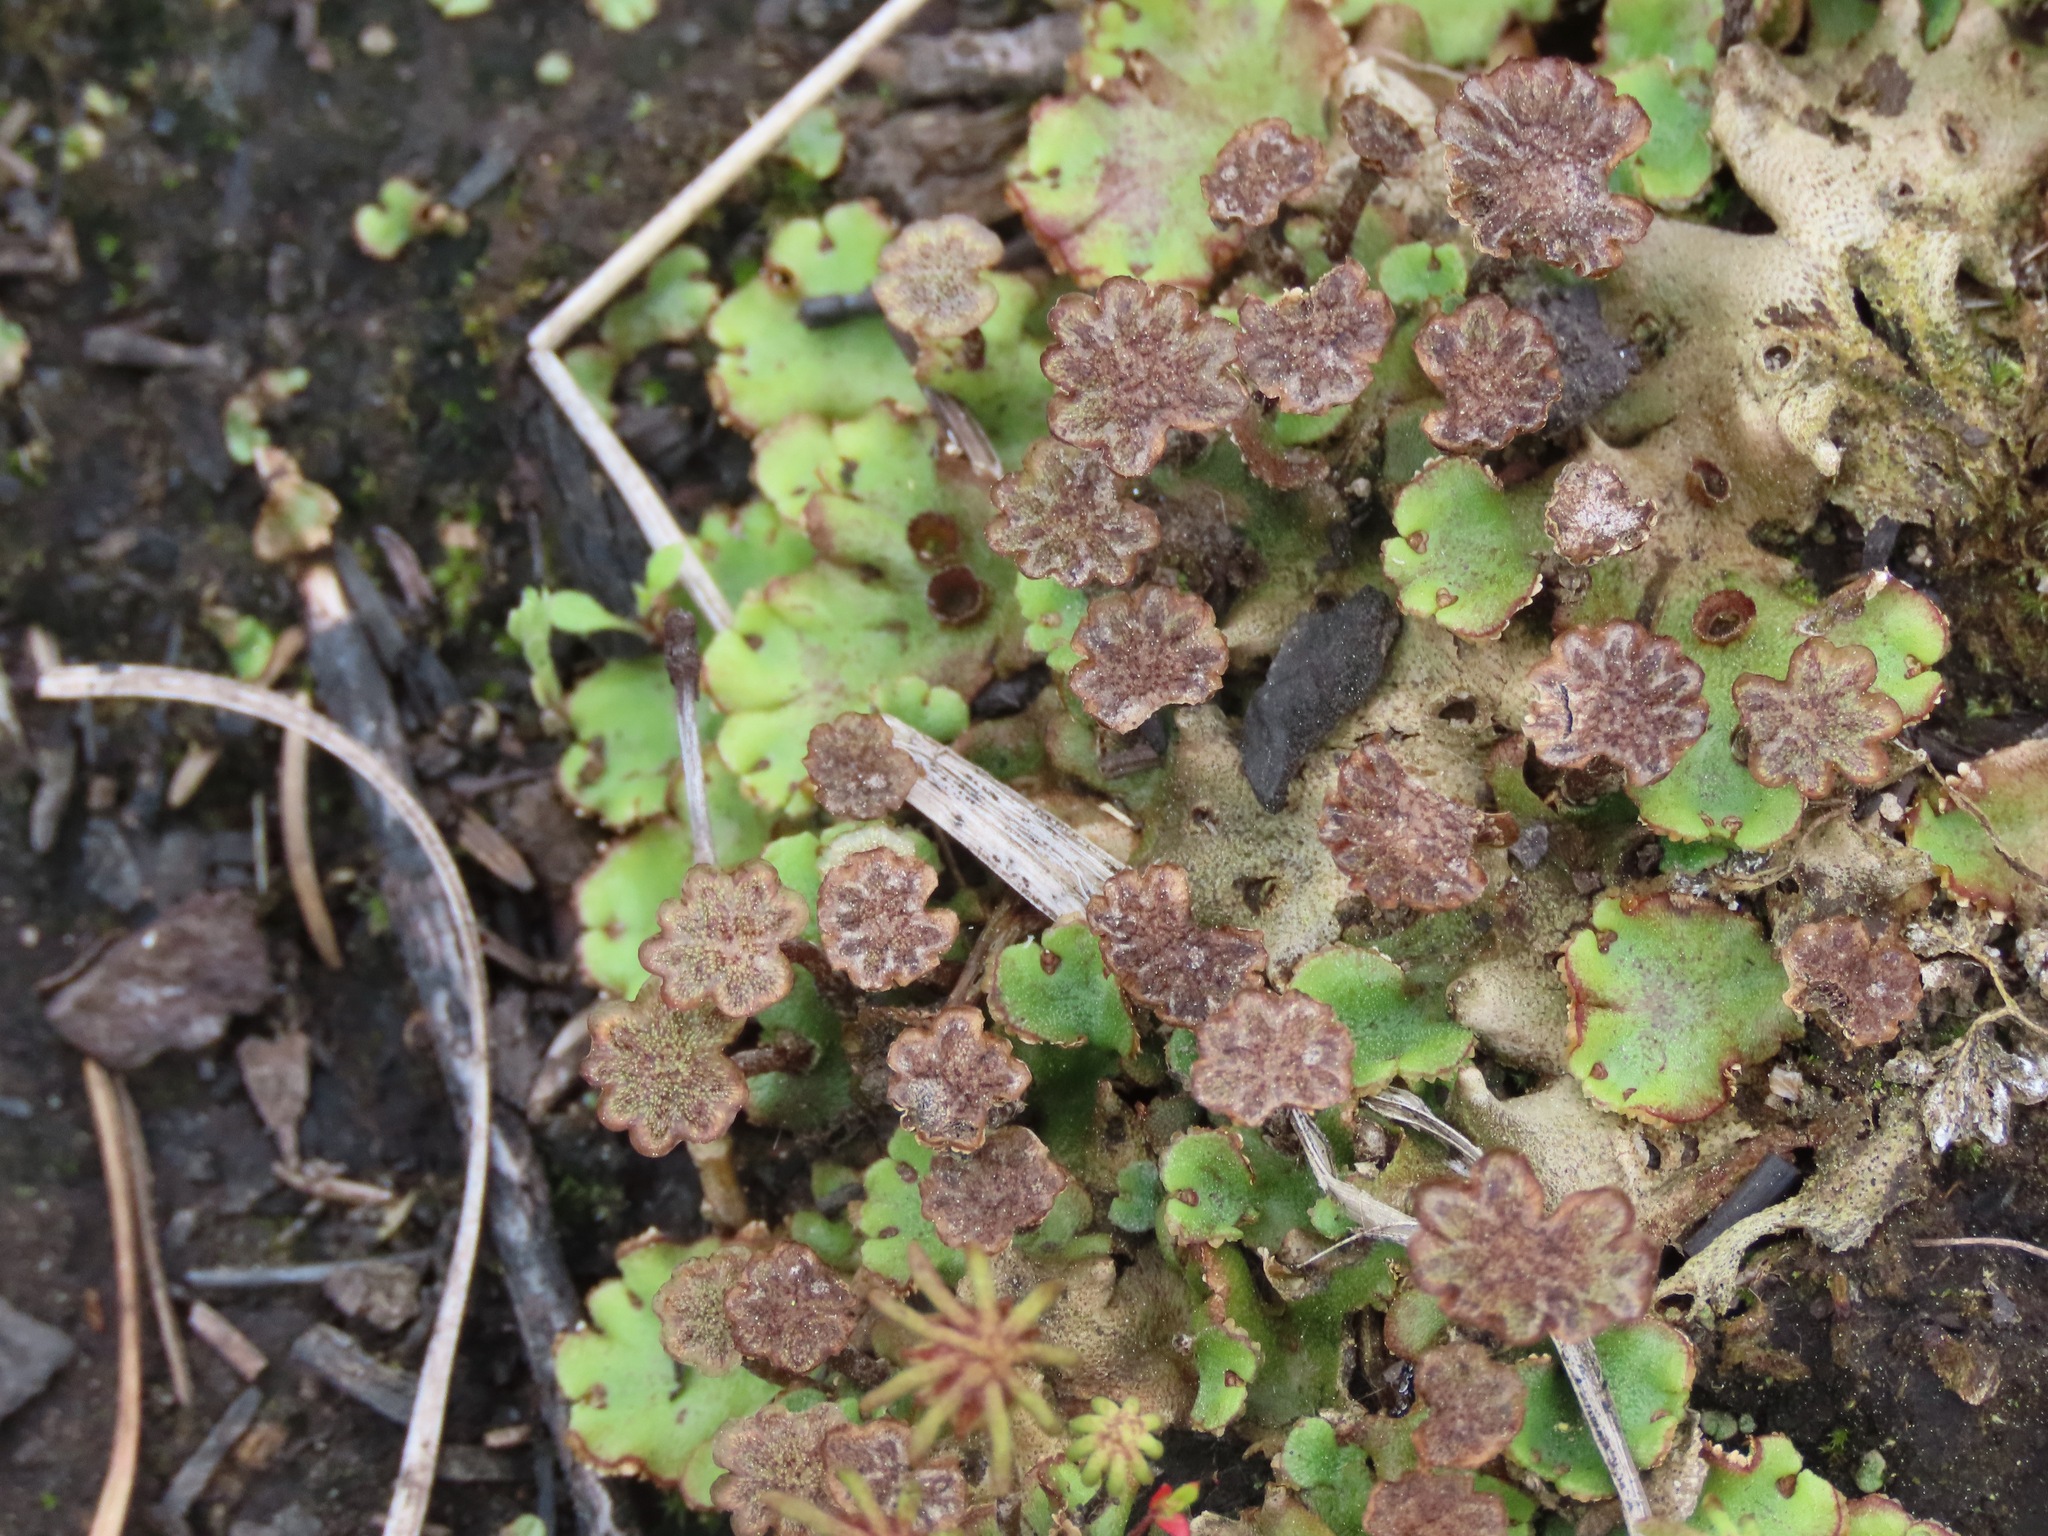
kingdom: Plantae
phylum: Marchantiophyta
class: Marchantiopsida
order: Marchantiales
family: Marchantiaceae
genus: Marchantia
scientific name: Marchantia polymorpha
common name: Common liverwort
